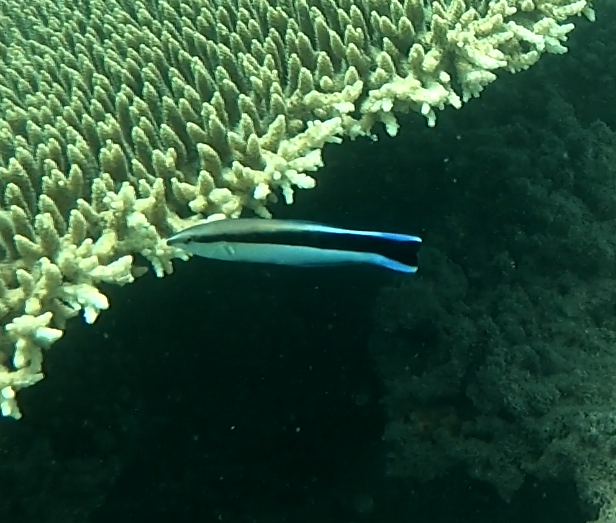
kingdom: Animalia
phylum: Chordata
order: Perciformes
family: Labridae
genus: Labroides
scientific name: Labroides dimidiatus
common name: Blue diesel wrasse
